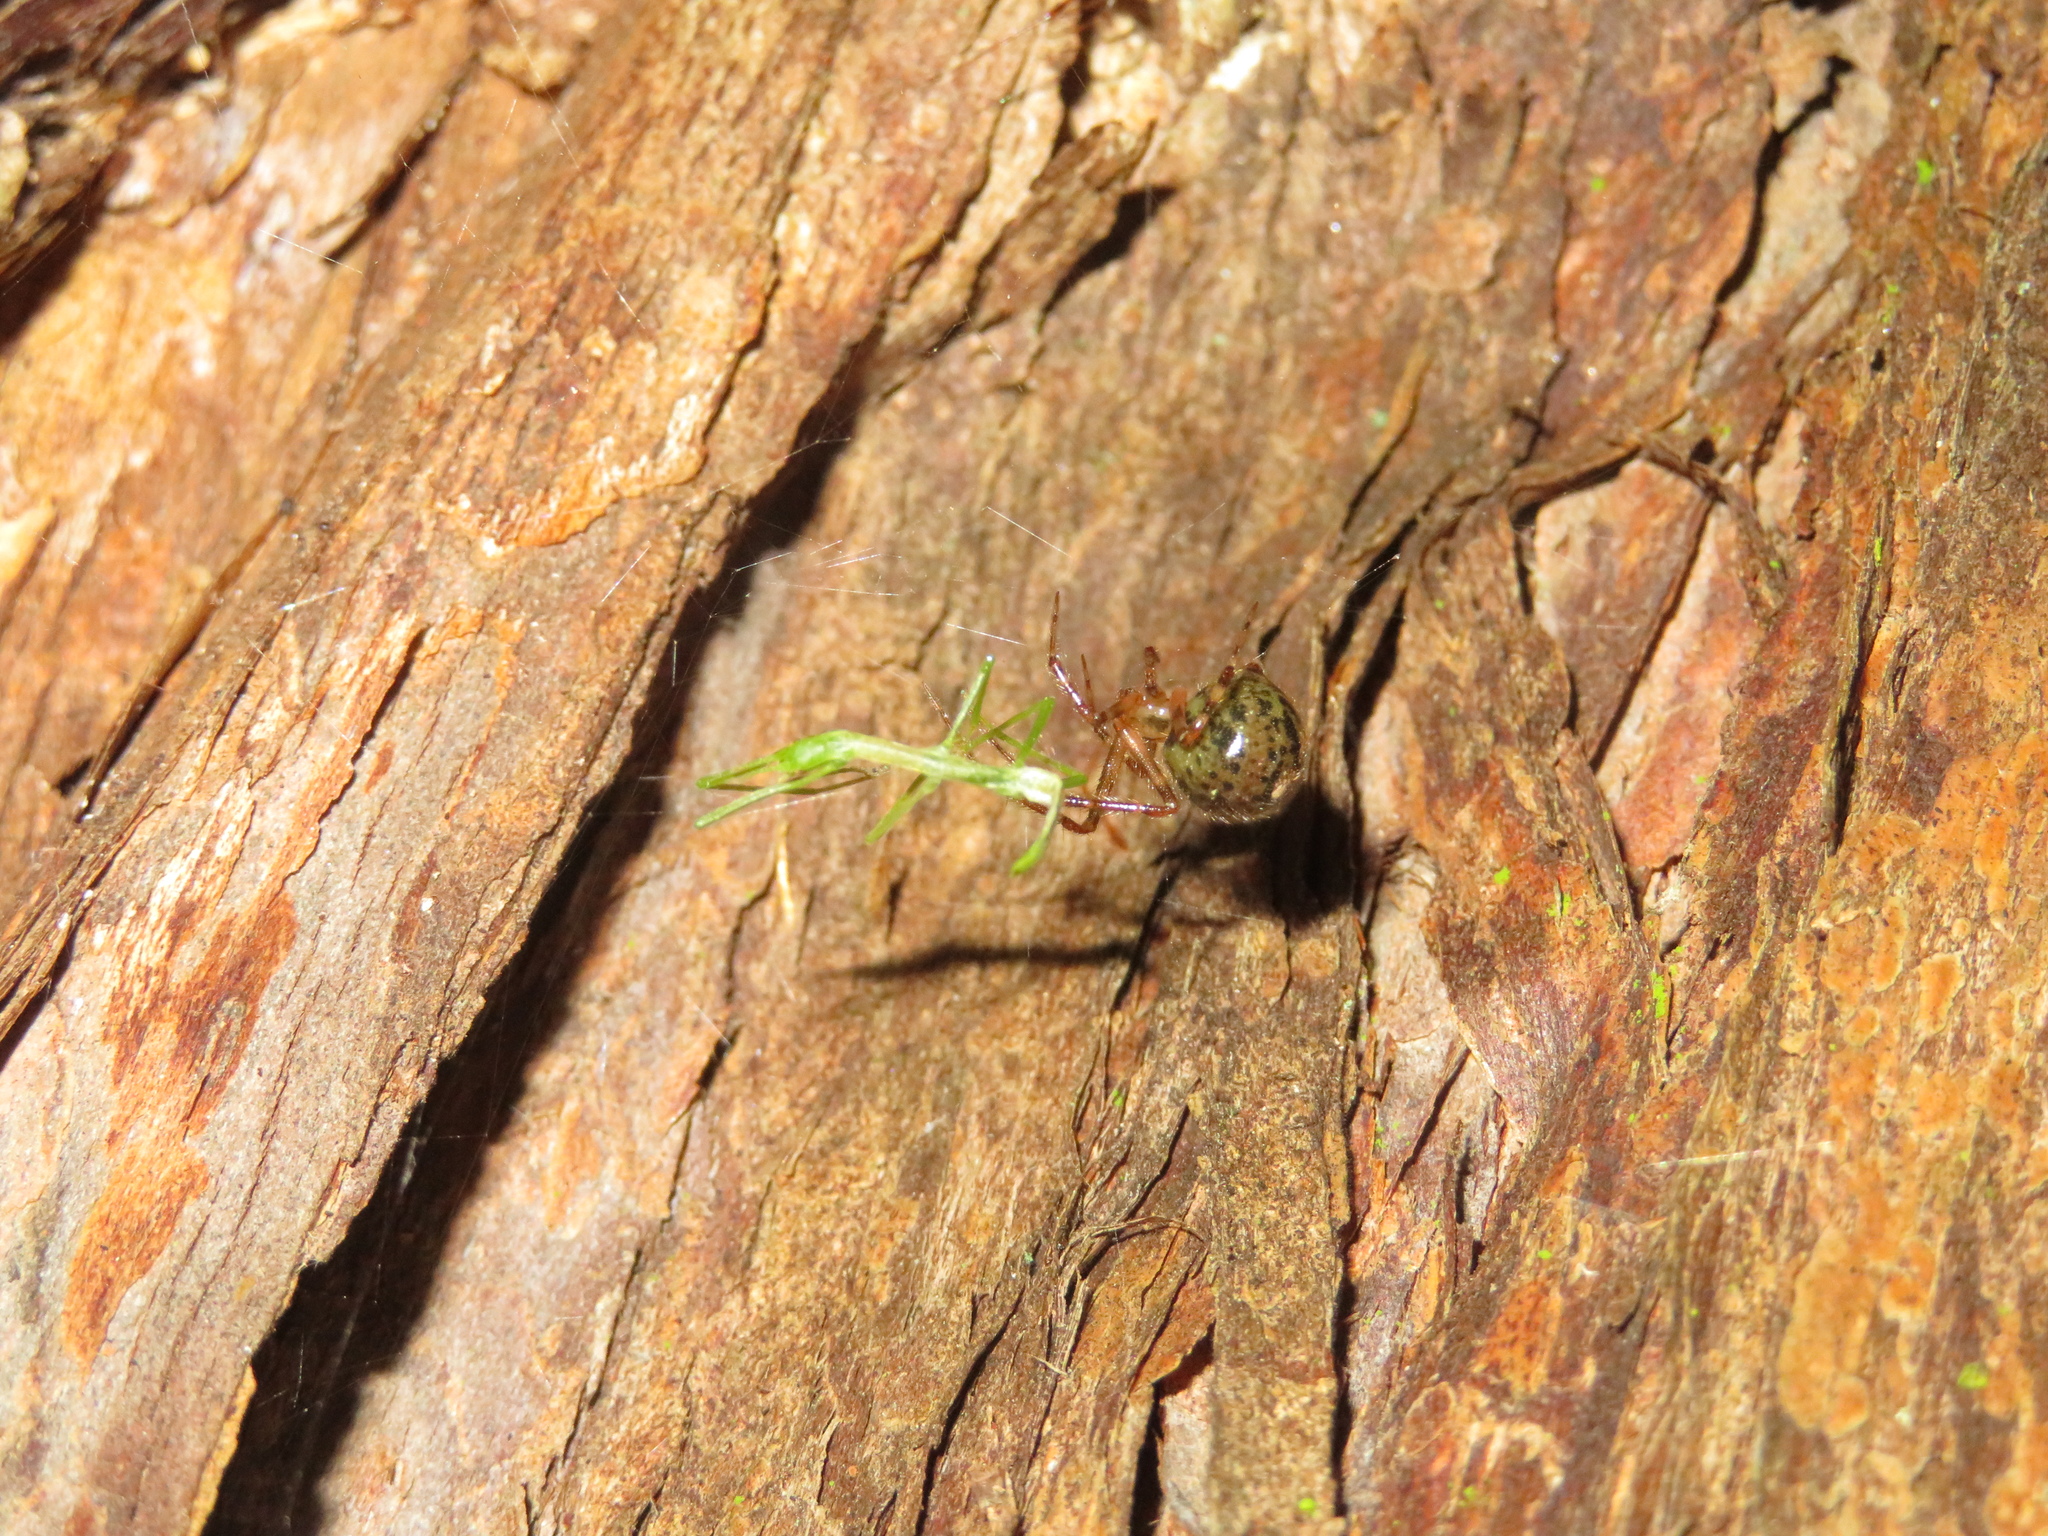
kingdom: Animalia
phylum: Arthropoda
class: Arachnida
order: Araneae
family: Theridiidae
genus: Theridion
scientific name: Theridion zantholabio
